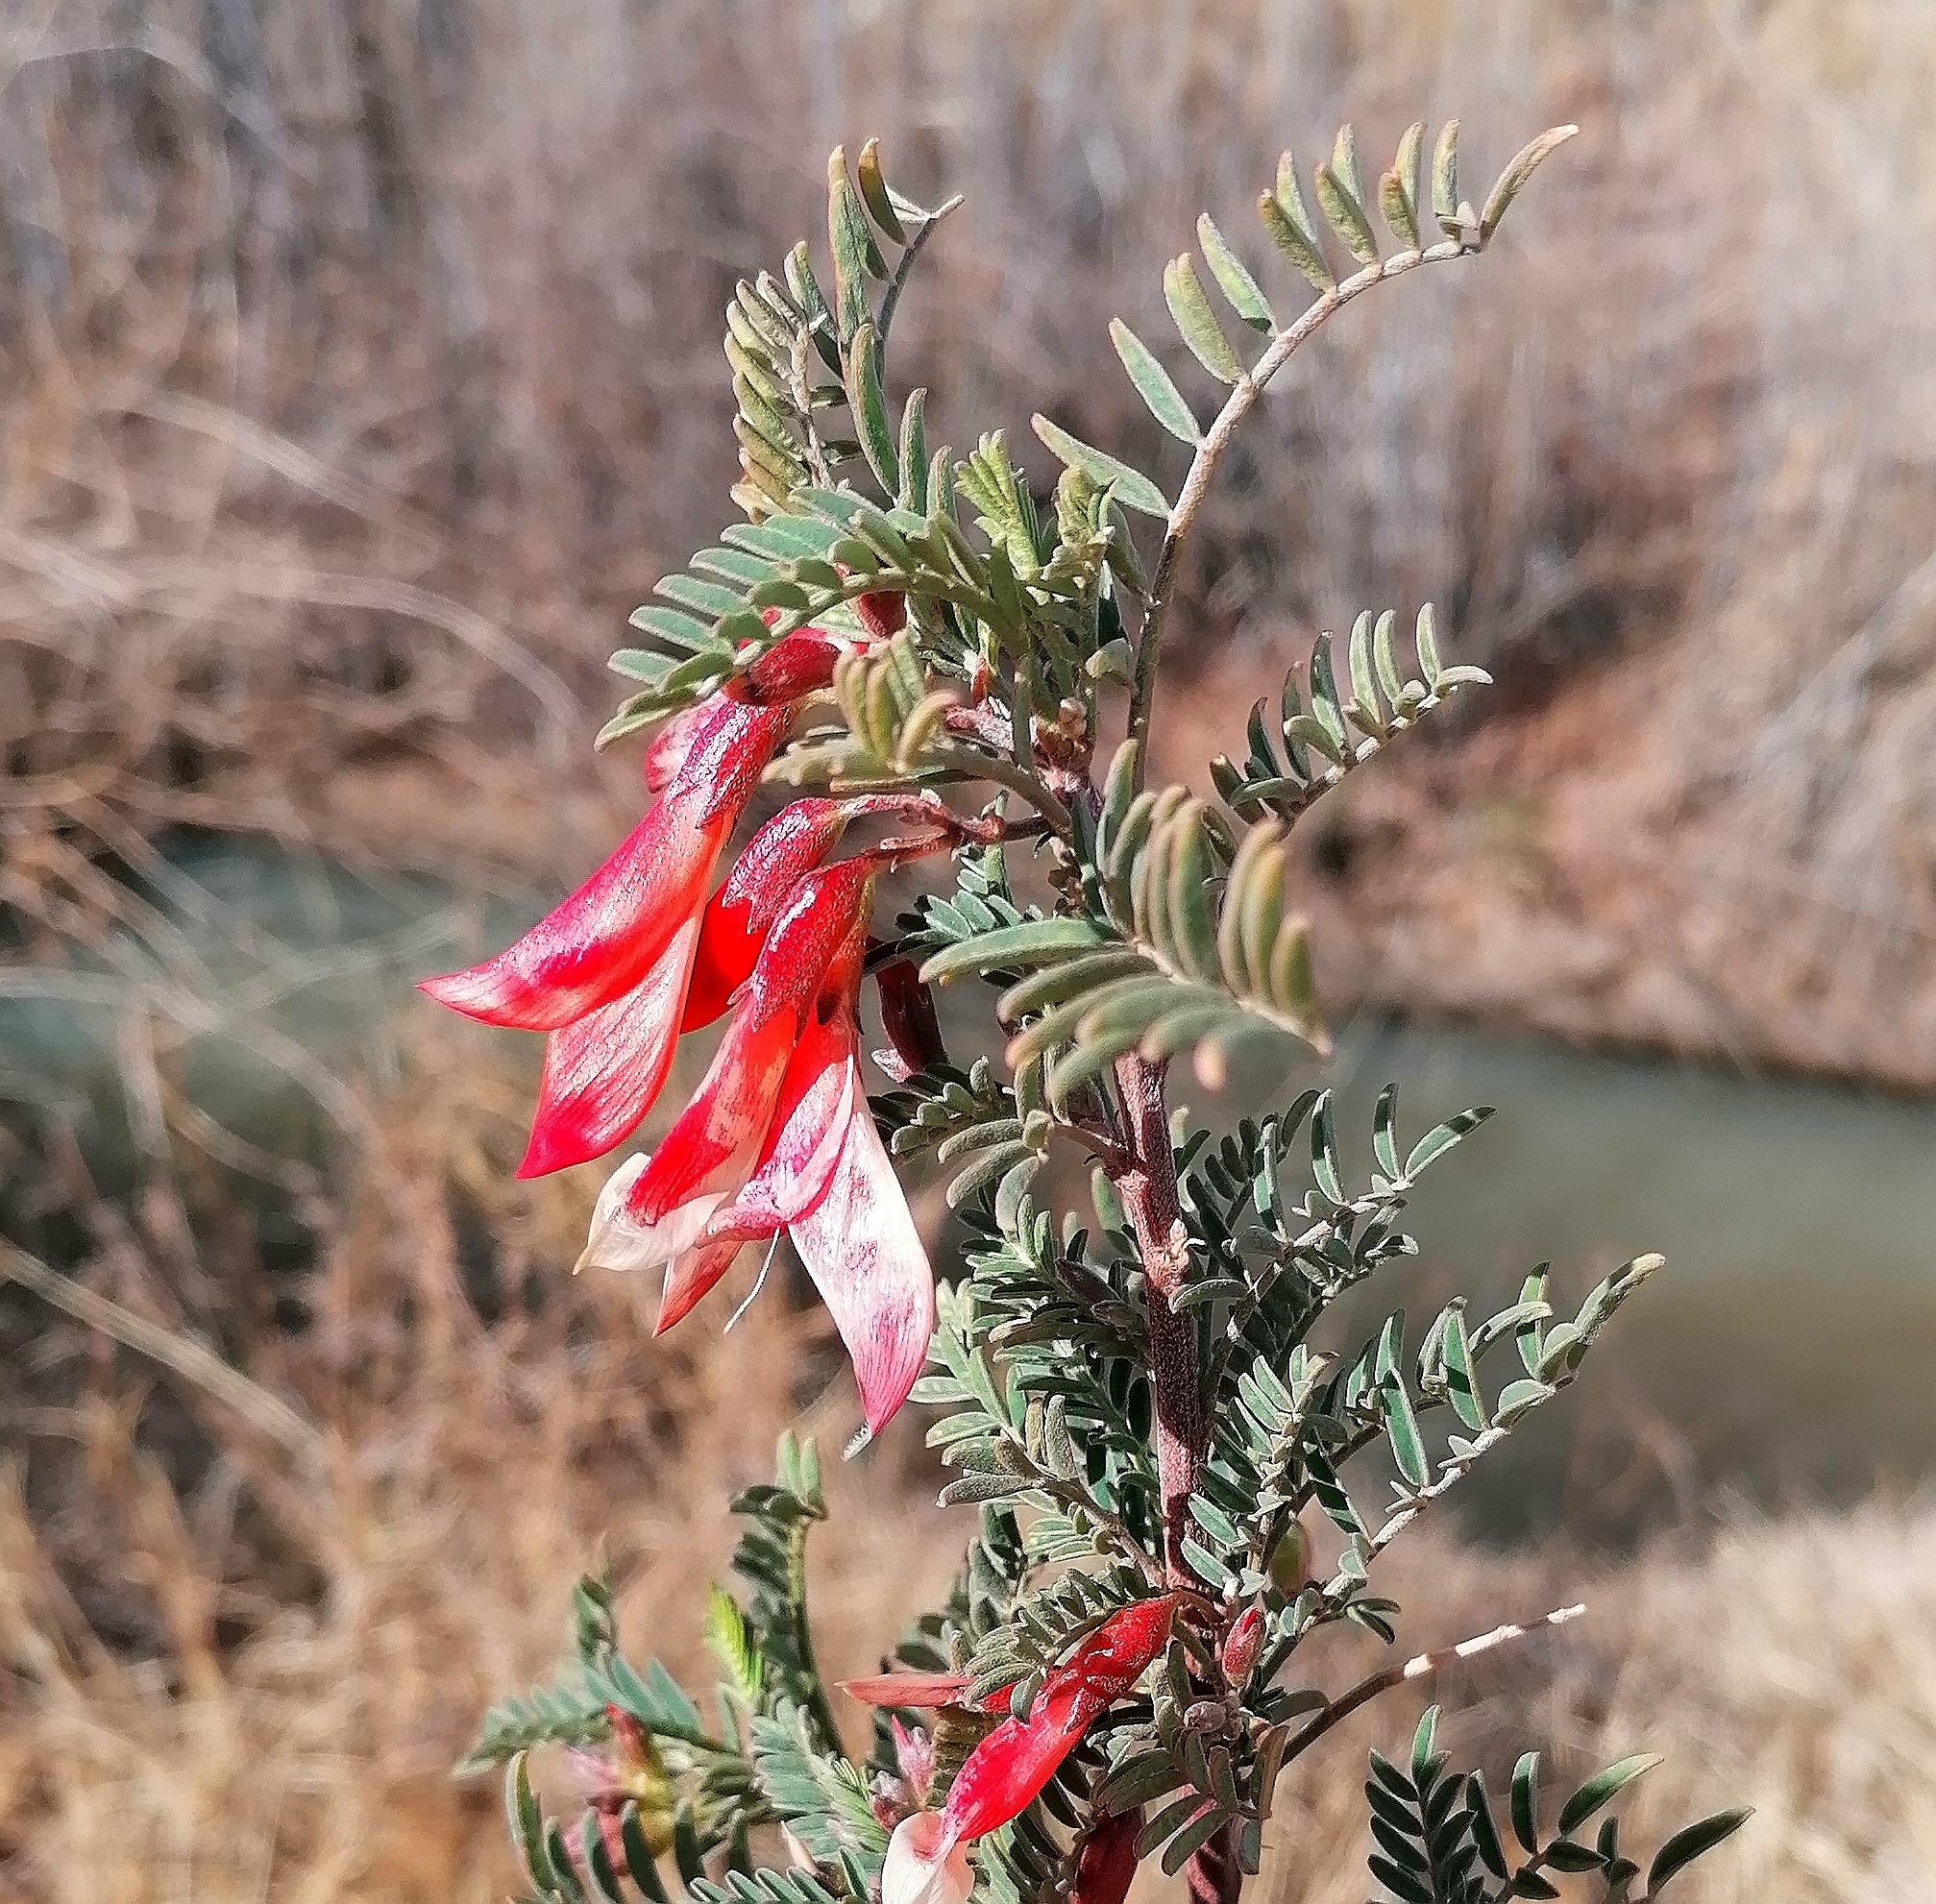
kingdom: Plantae
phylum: Tracheophyta
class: Magnoliopsida
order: Fabales
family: Fabaceae
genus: Lessertia
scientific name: Lessertia frutescens
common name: Balloon-pea
